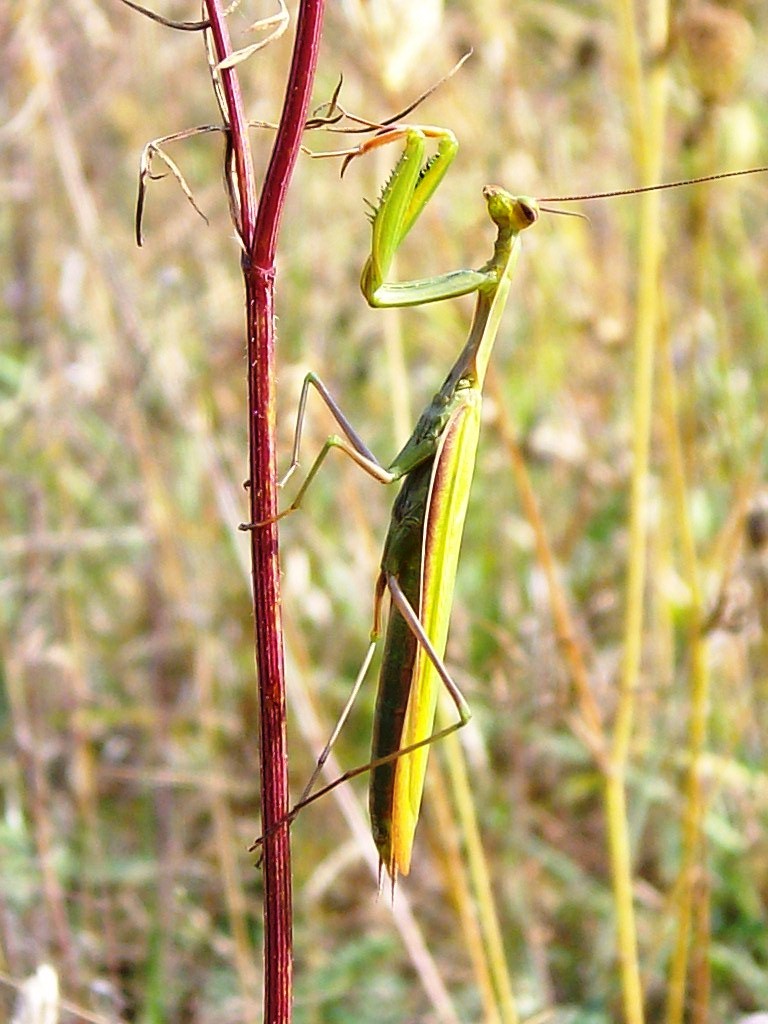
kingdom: Animalia
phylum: Arthropoda
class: Insecta
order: Mantodea
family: Mantidae
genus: Mantis
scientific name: Mantis religiosa
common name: Praying mantis
